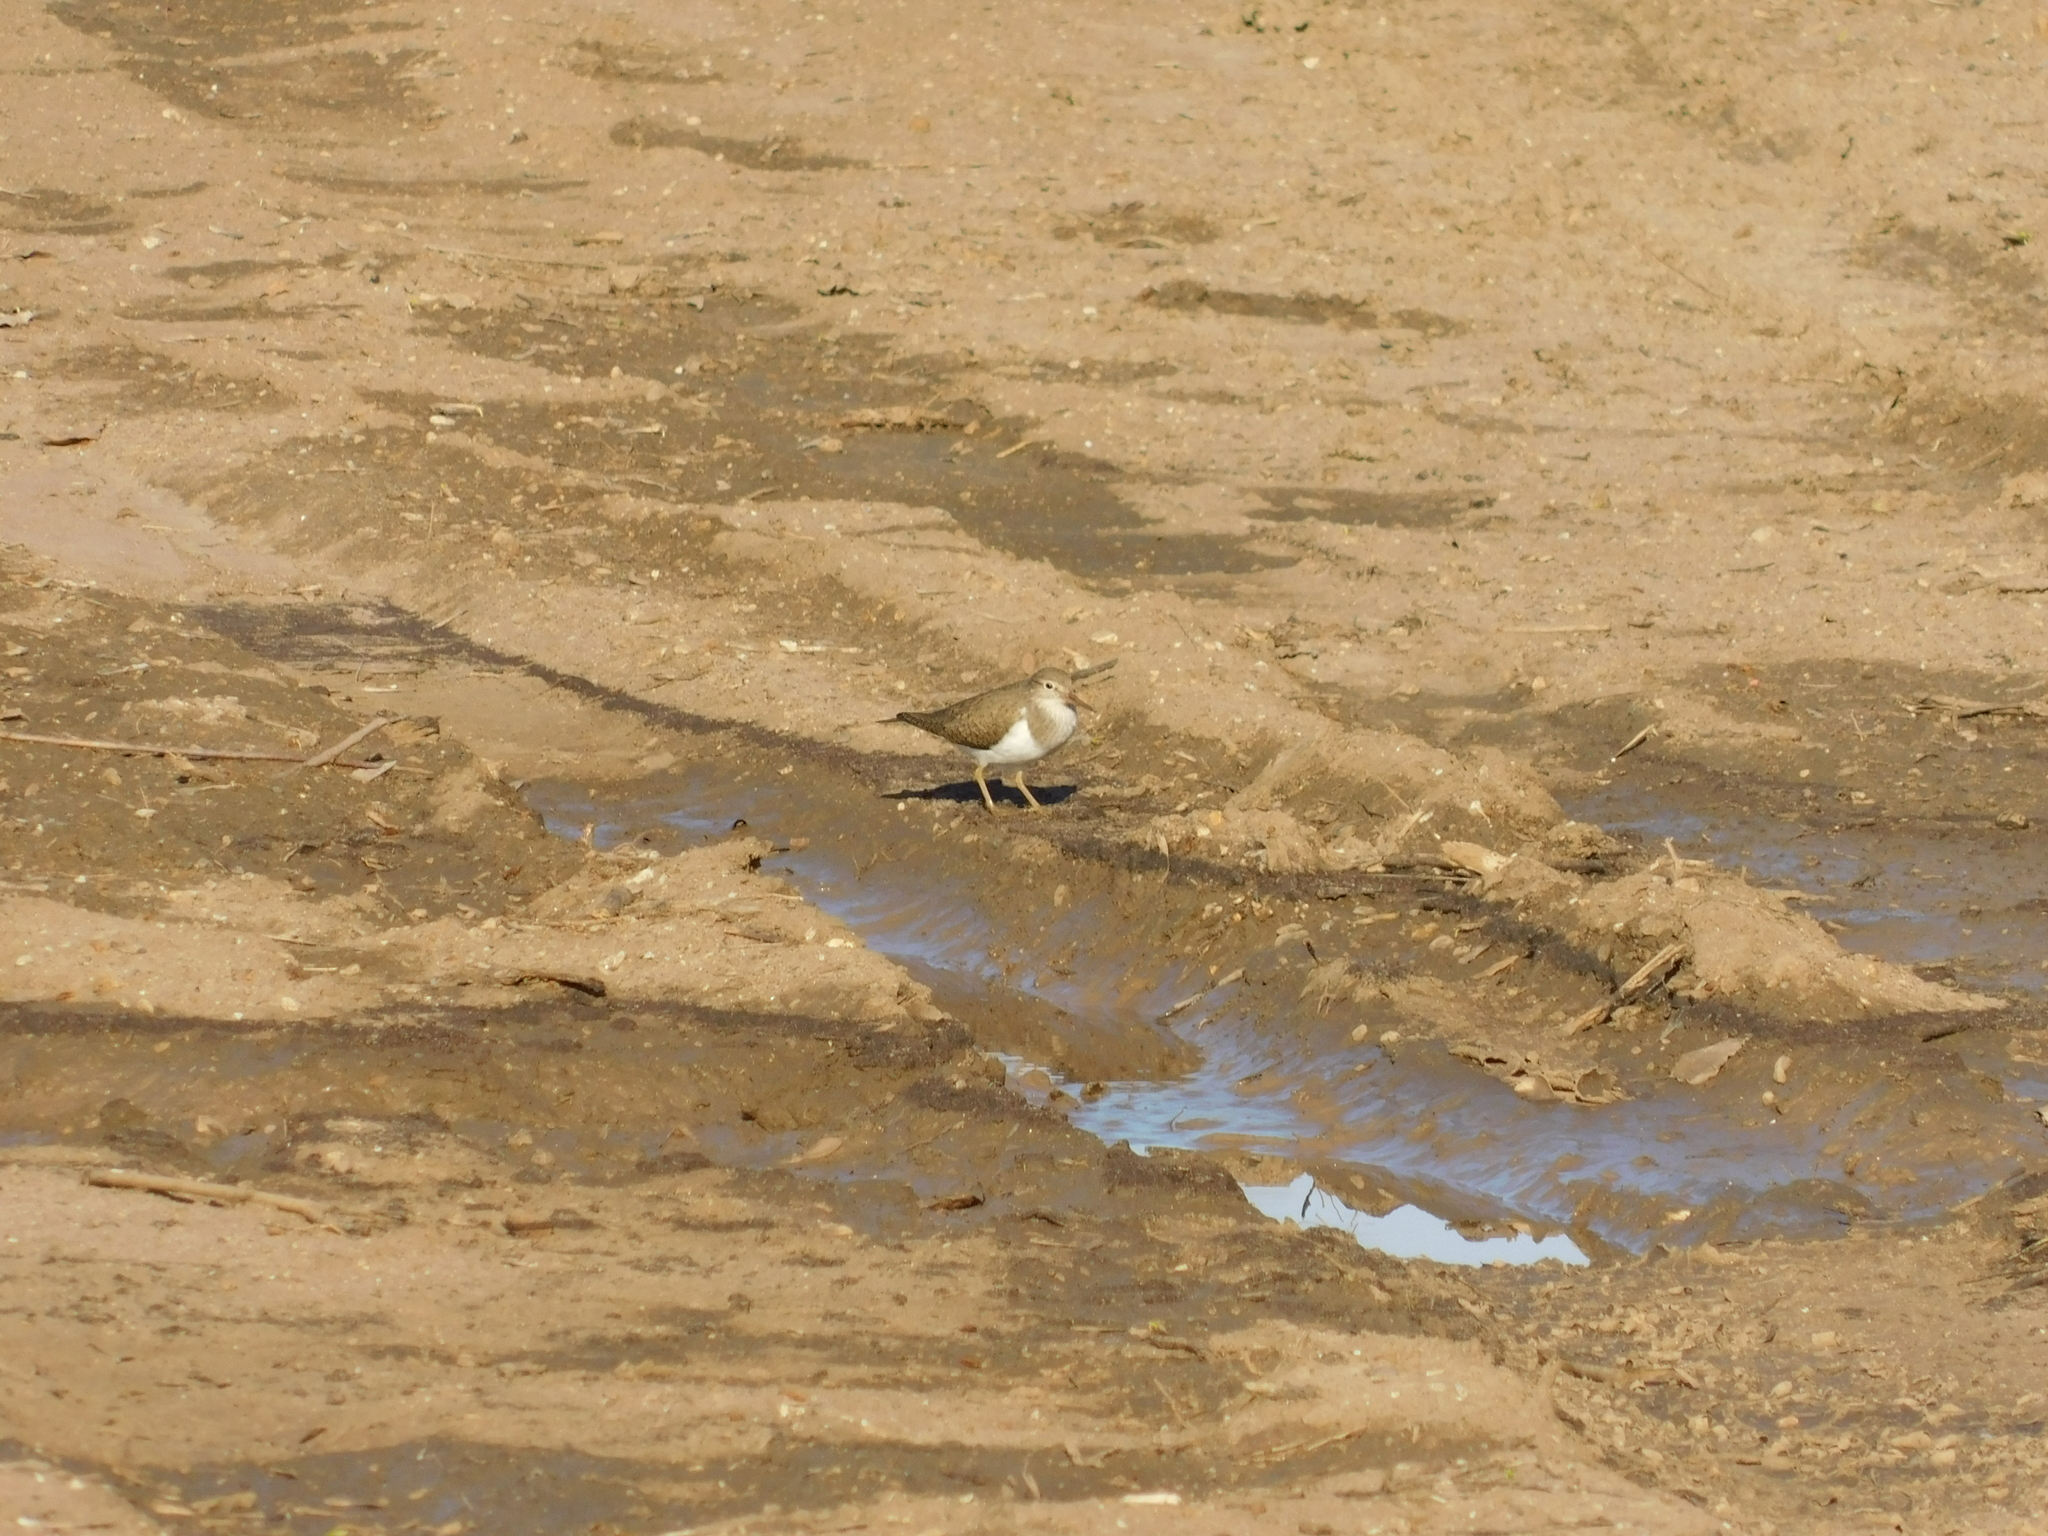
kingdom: Animalia
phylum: Chordata
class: Aves
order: Charadriiformes
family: Scolopacidae
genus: Actitis
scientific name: Actitis hypoleucos
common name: Common sandpiper
